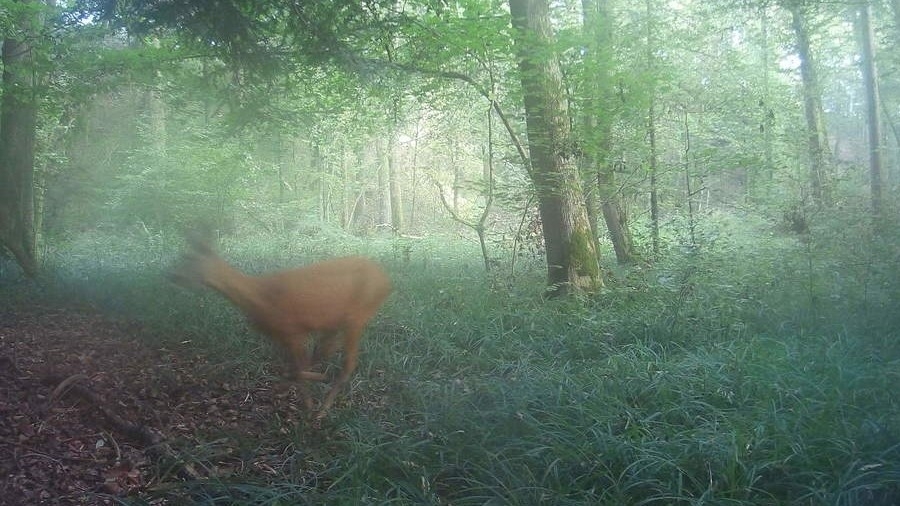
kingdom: Animalia
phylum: Chordata
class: Mammalia
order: Artiodactyla
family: Cervidae
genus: Capreolus
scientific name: Capreolus capreolus
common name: Western roe deer
